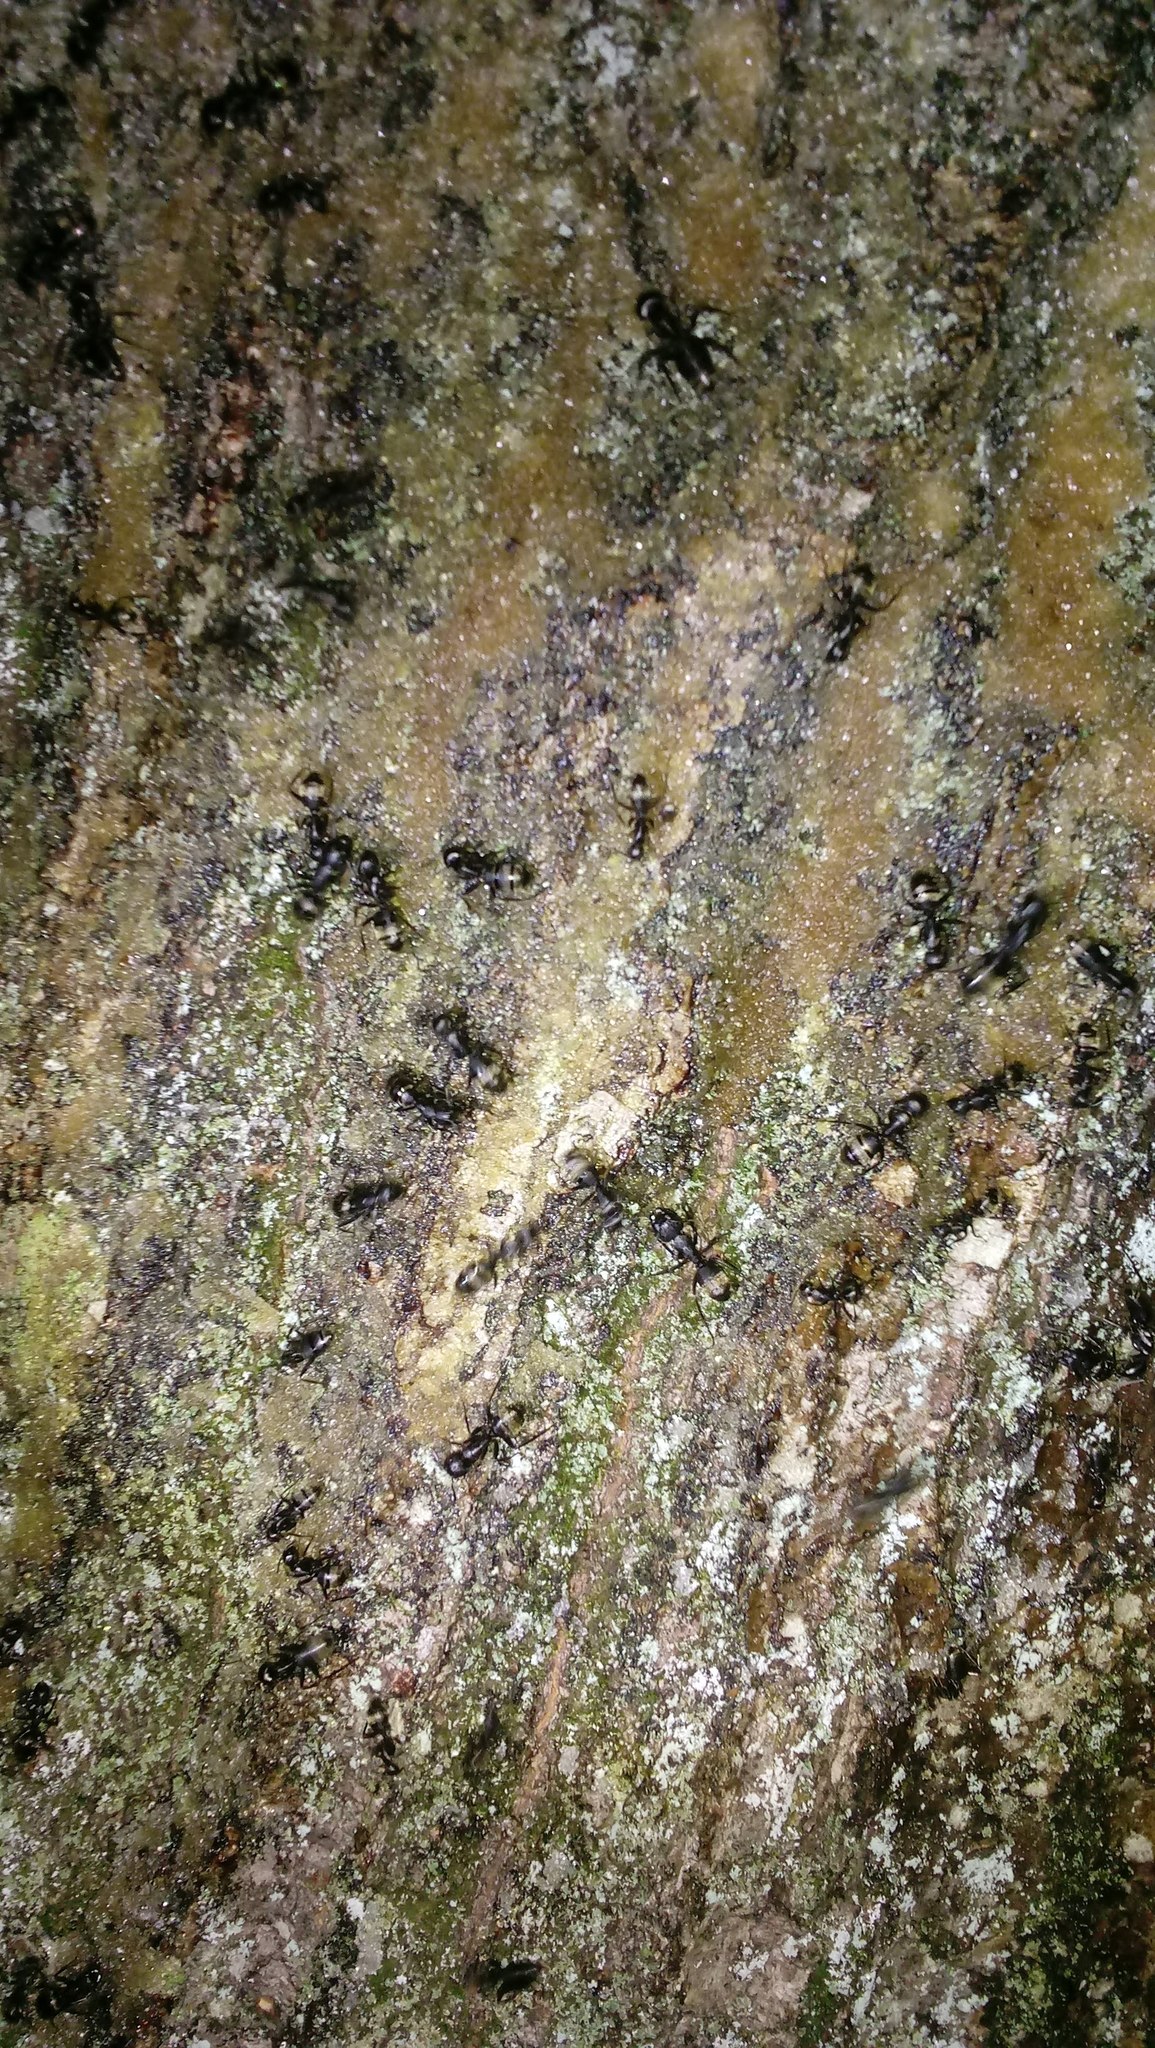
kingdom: Animalia
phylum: Arthropoda
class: Insecta
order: Hymenoptera
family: Formicidae
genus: Camponotus
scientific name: Camponotus pennsylvanicus
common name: Black carpenter ant
